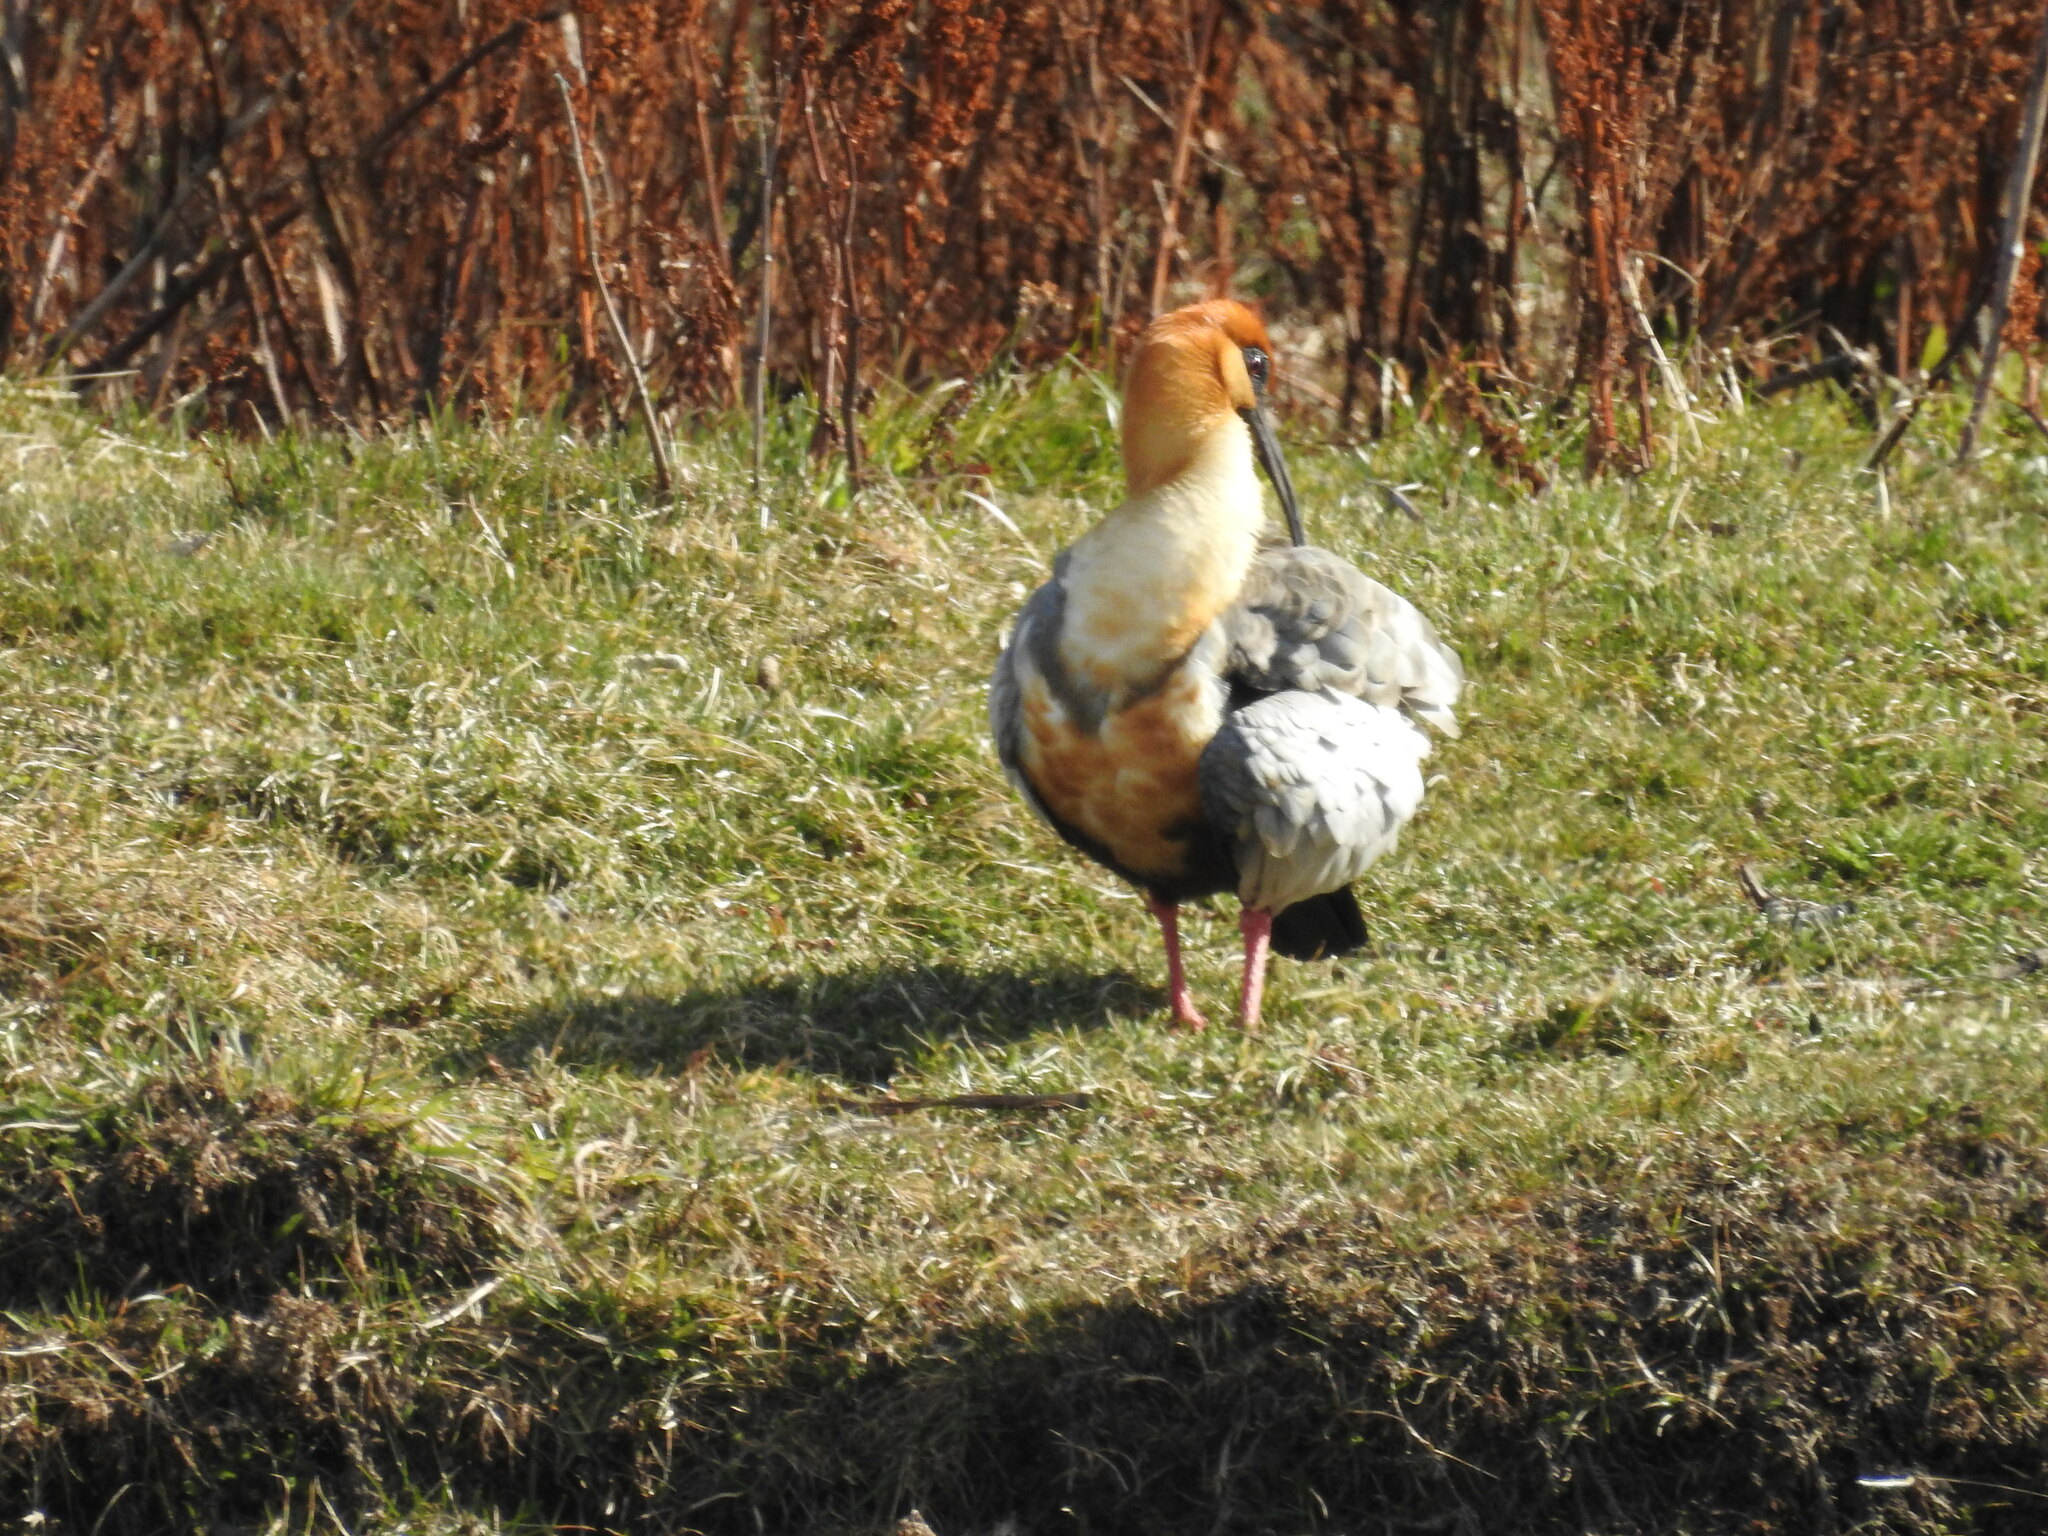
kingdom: Animalia
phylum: Chordata
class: Aves
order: Pelecaniformes
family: Threskiornithidae
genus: Theristicus
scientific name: Theristicus melanopis
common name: Black-faced ibis
